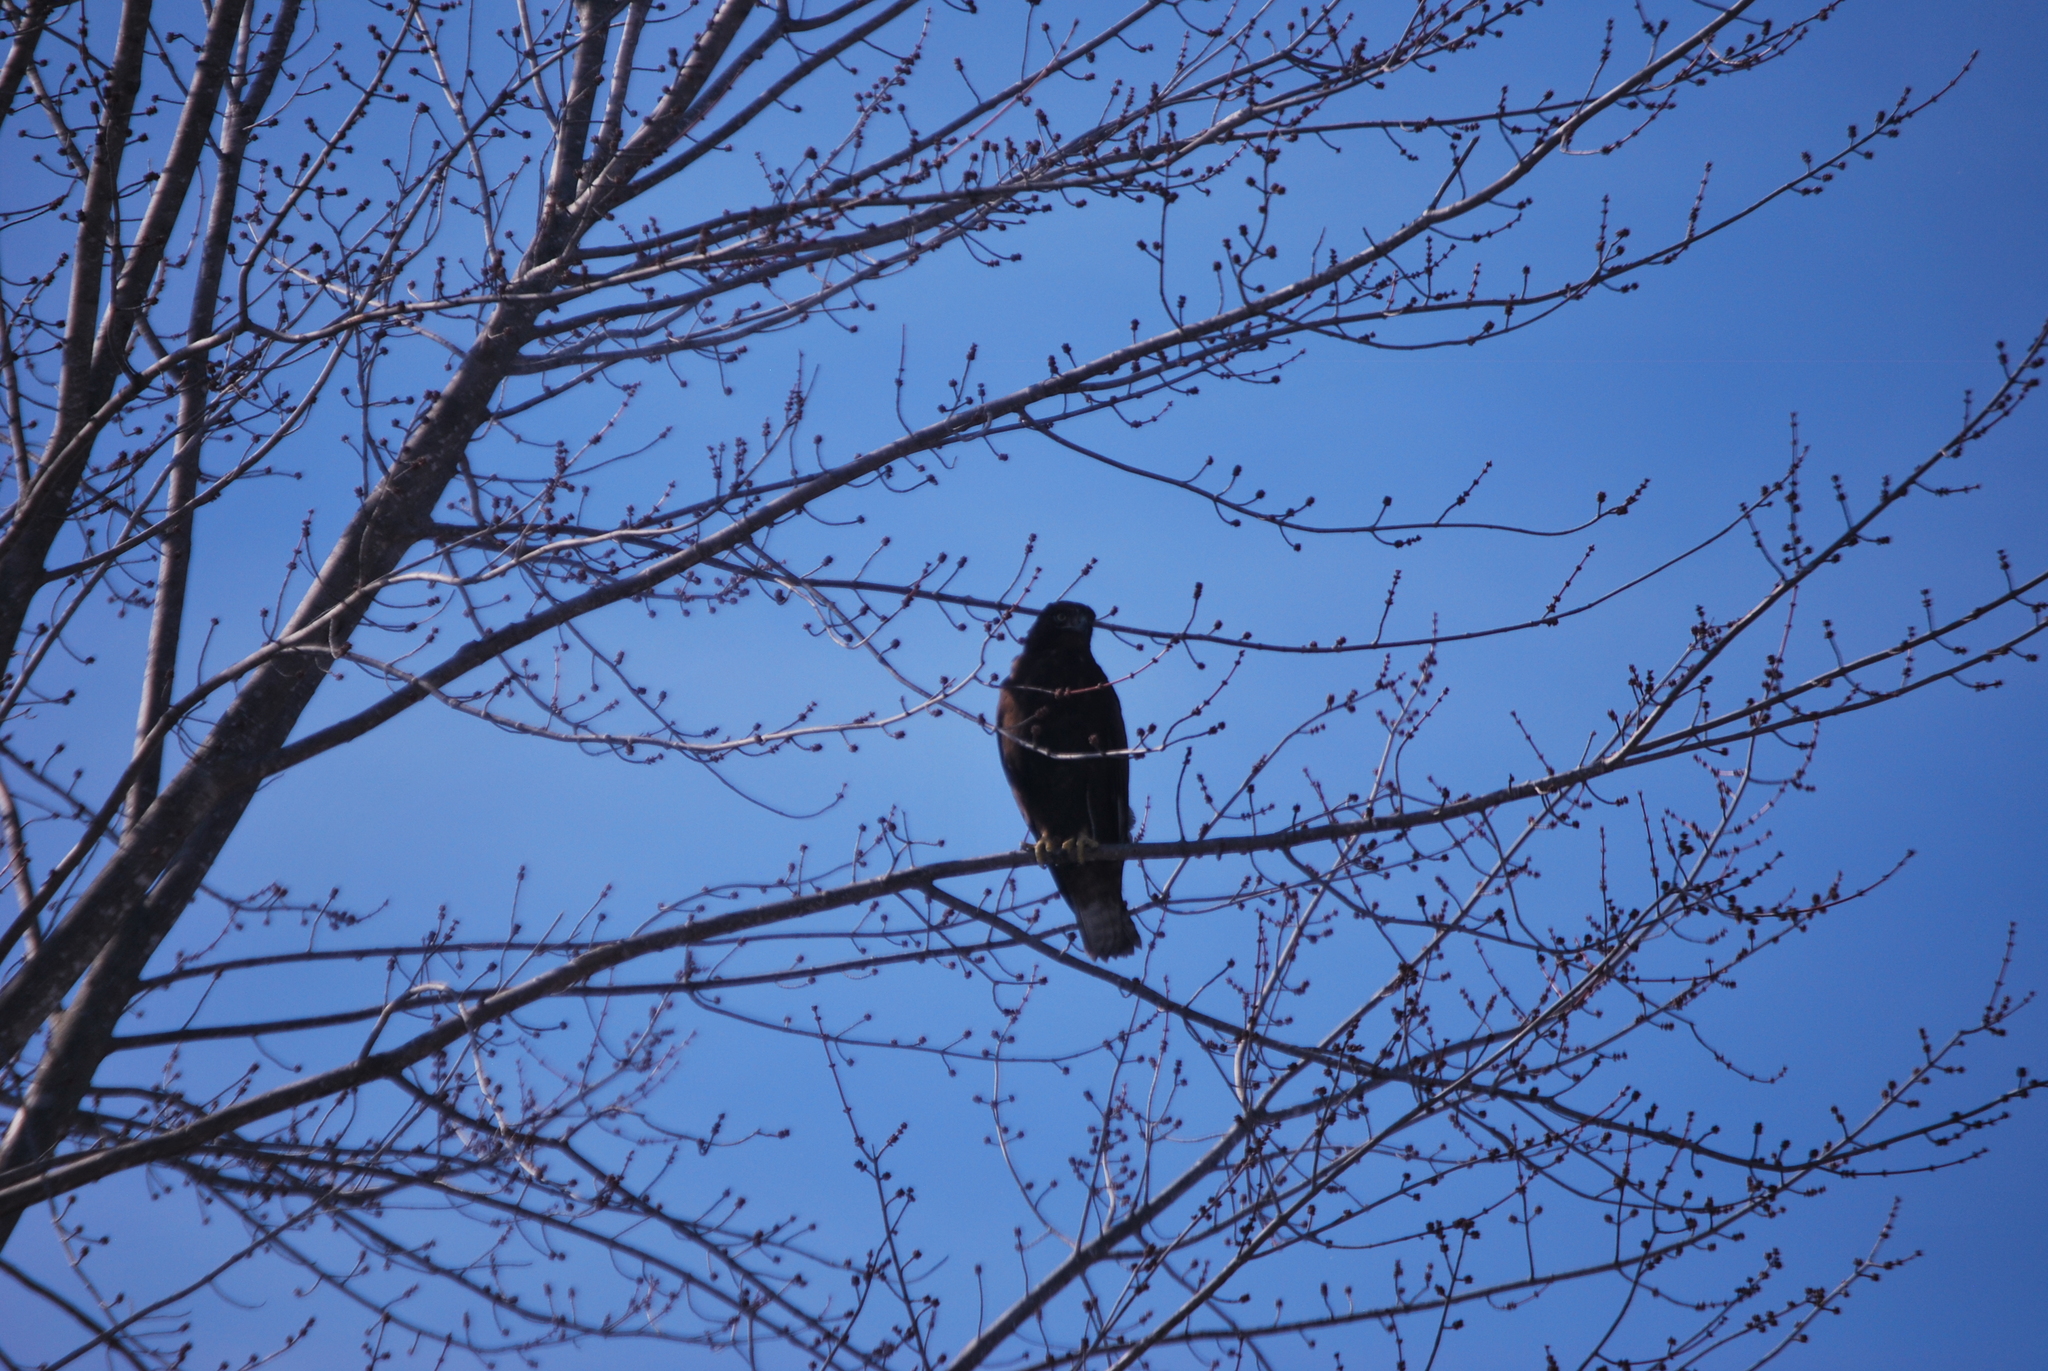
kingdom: Animalia
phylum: Chordata
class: Aves
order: Accipitriformes
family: Accipitridae
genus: Buteo
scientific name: Buteo jamaicensis
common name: Red-tailed hawk
